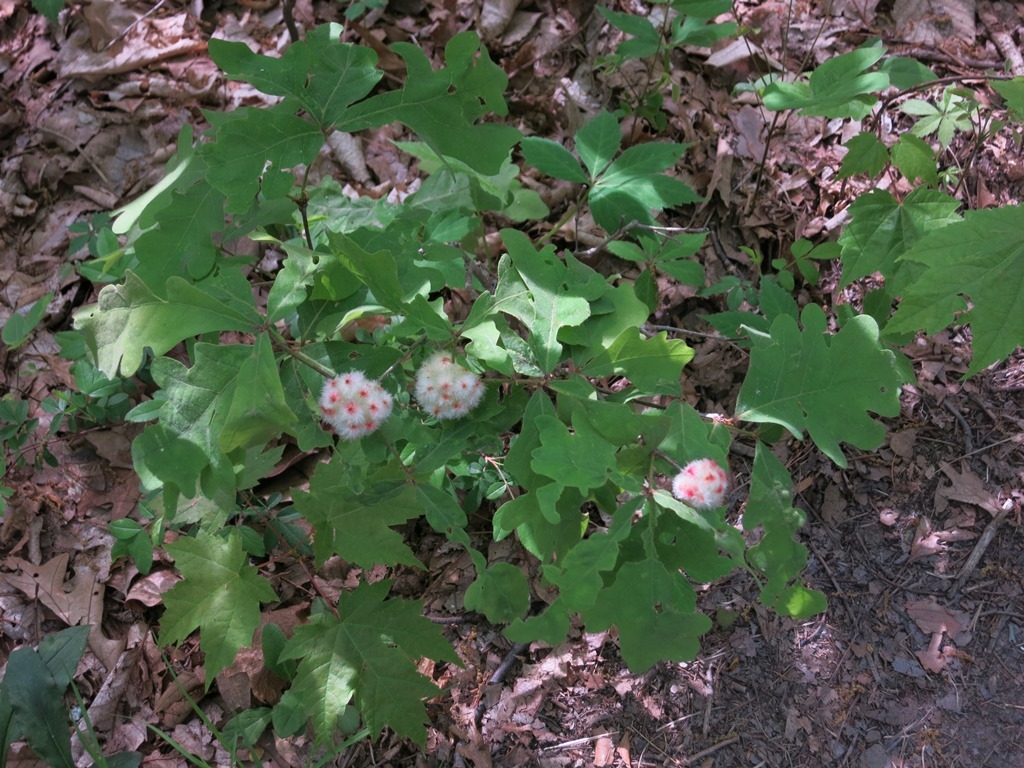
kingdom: Animalia
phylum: Arthropoda
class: Insecta
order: Hymenoptera
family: Cynipidae
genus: Callirhytis
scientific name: Callirhytis
